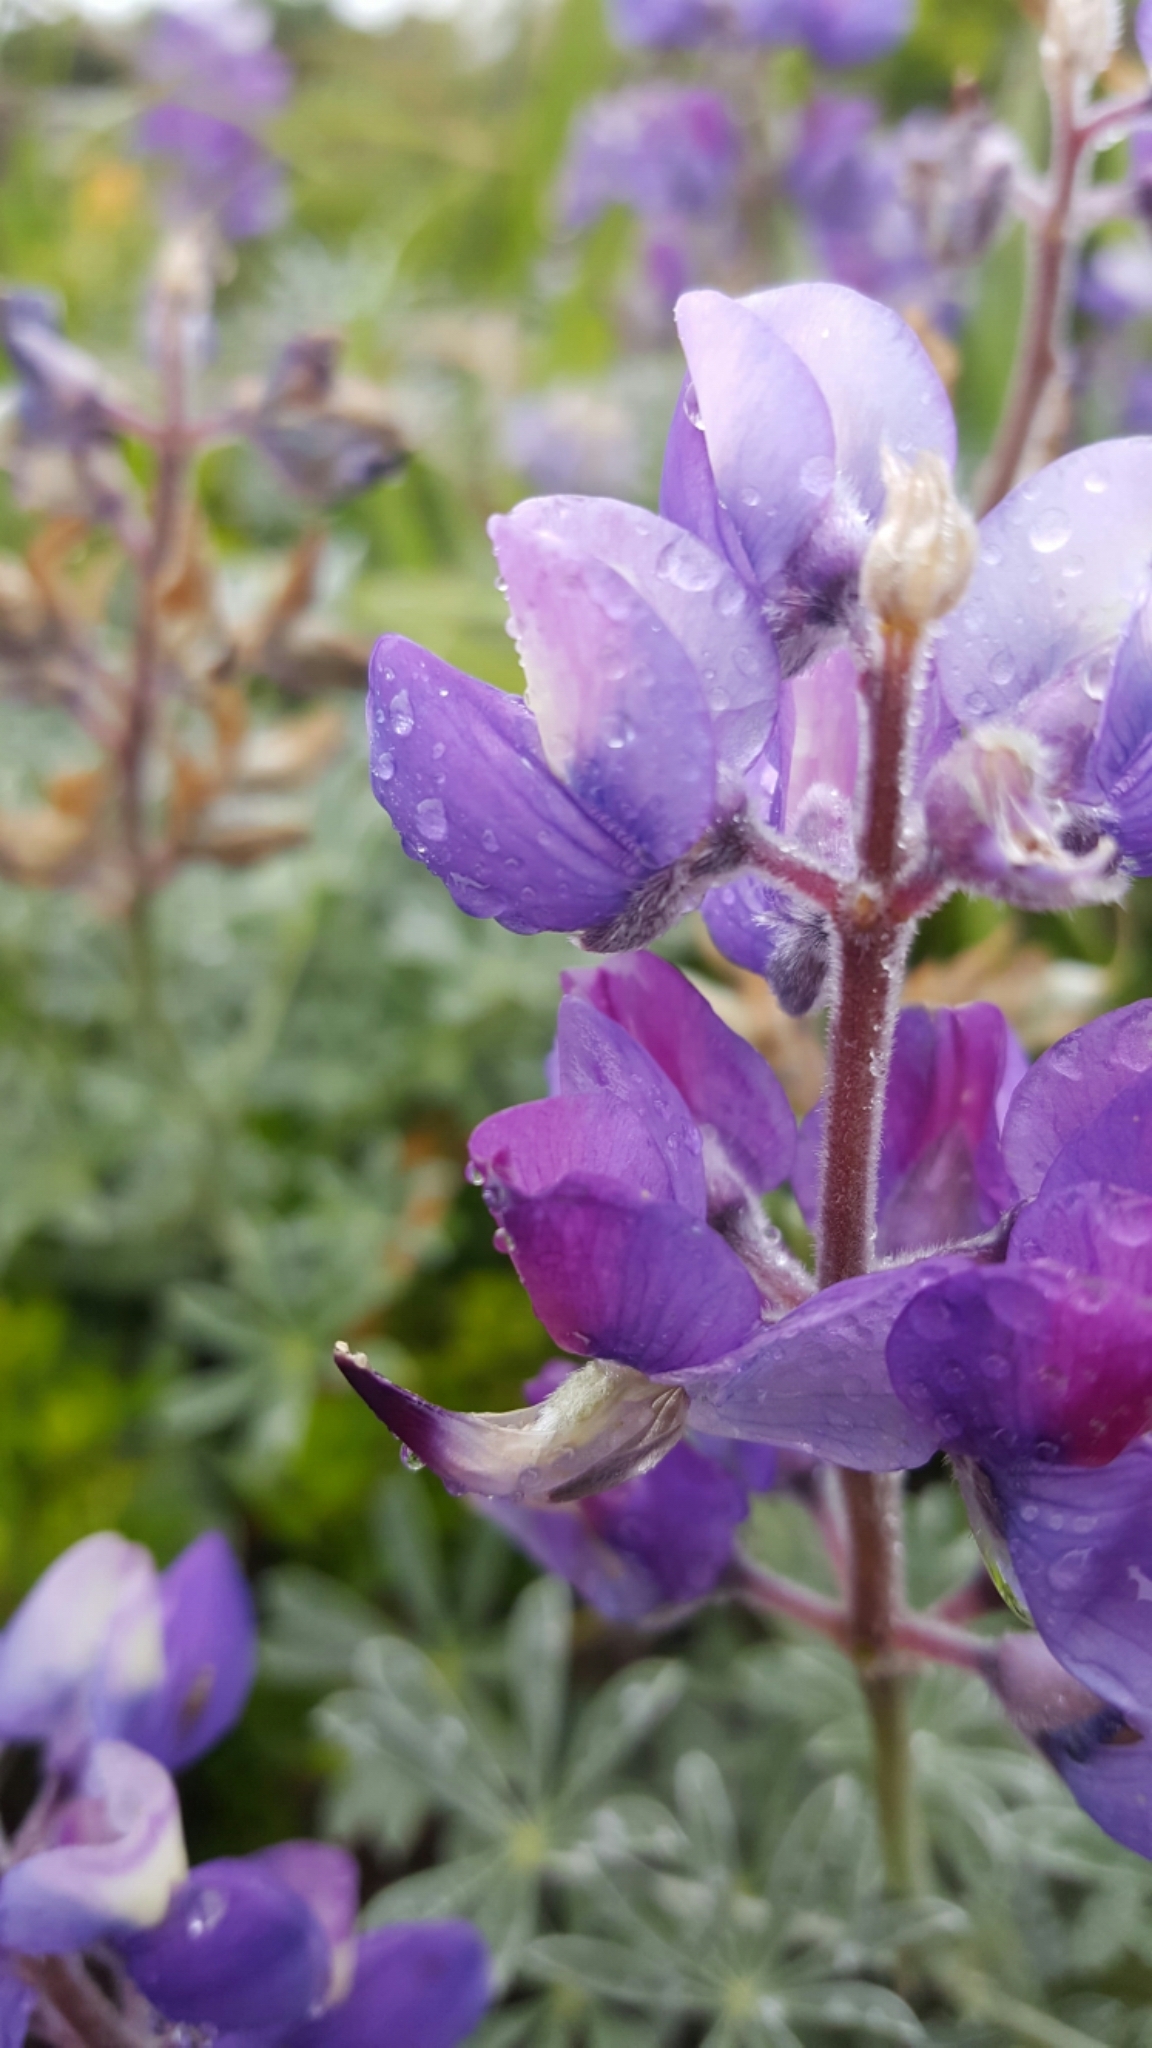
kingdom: Plantae
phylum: Tracheophyta
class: Magnoliopsida
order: Fabales
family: Fabaceae
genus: Lupinus
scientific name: Lupinus albifrons
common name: Foothill lupine
